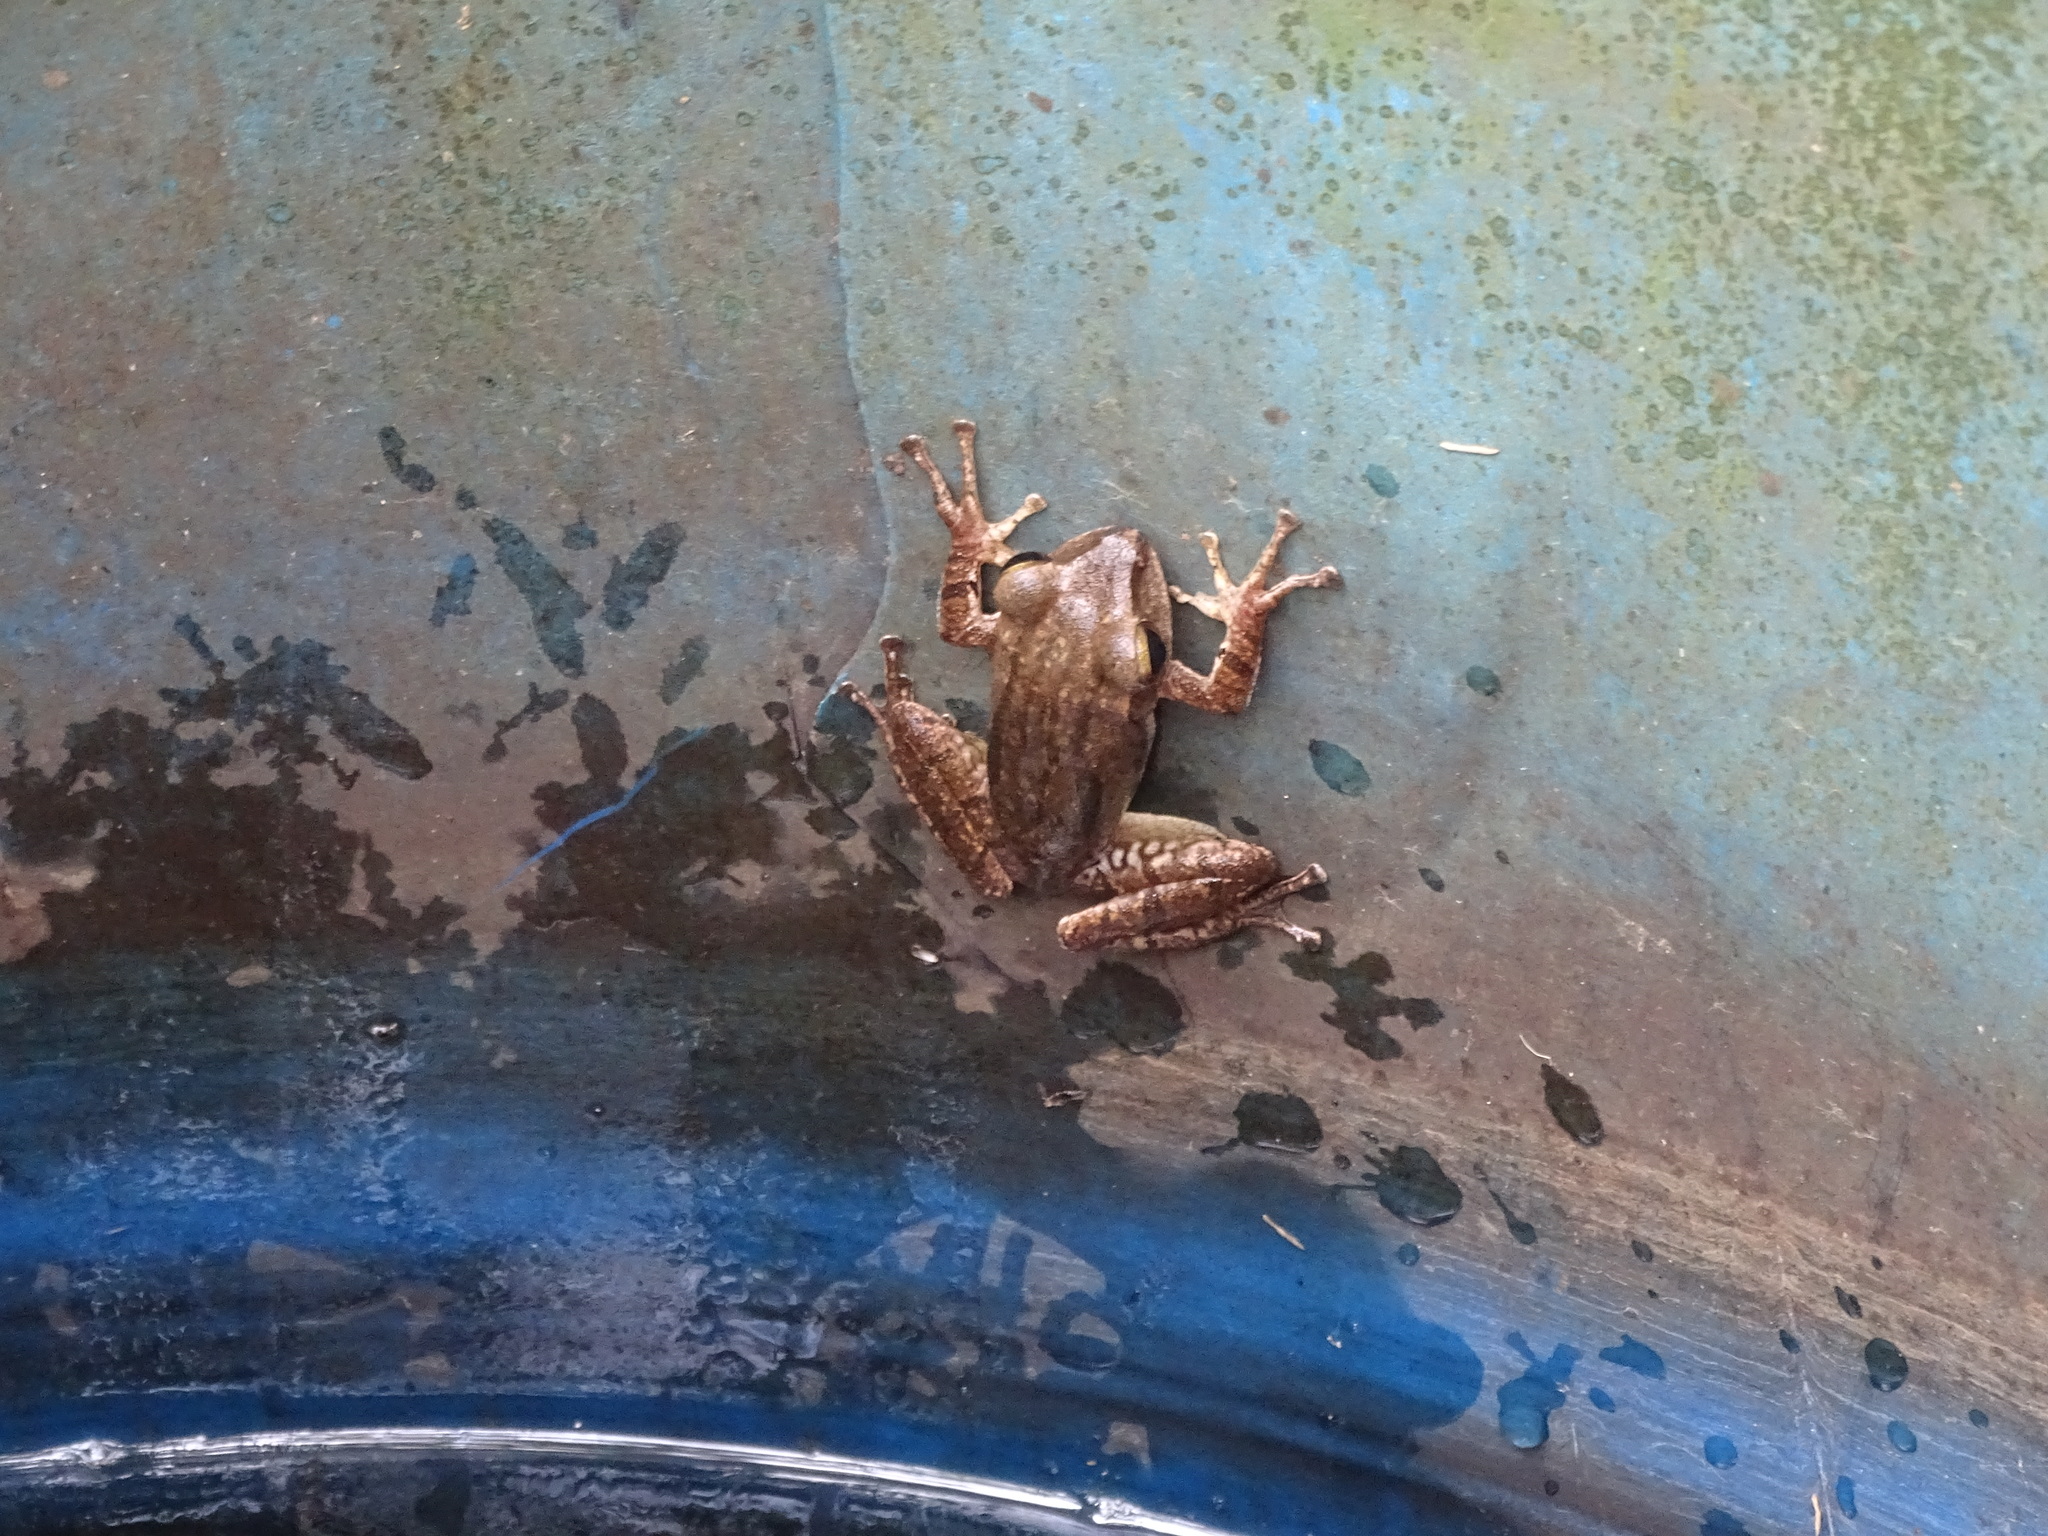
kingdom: Animalia
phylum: Chordata
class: Amphibia
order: Anura
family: Rhacophoridae
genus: Polypedates
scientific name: Polypedates megacephalus
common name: Hong kong whipping frog
